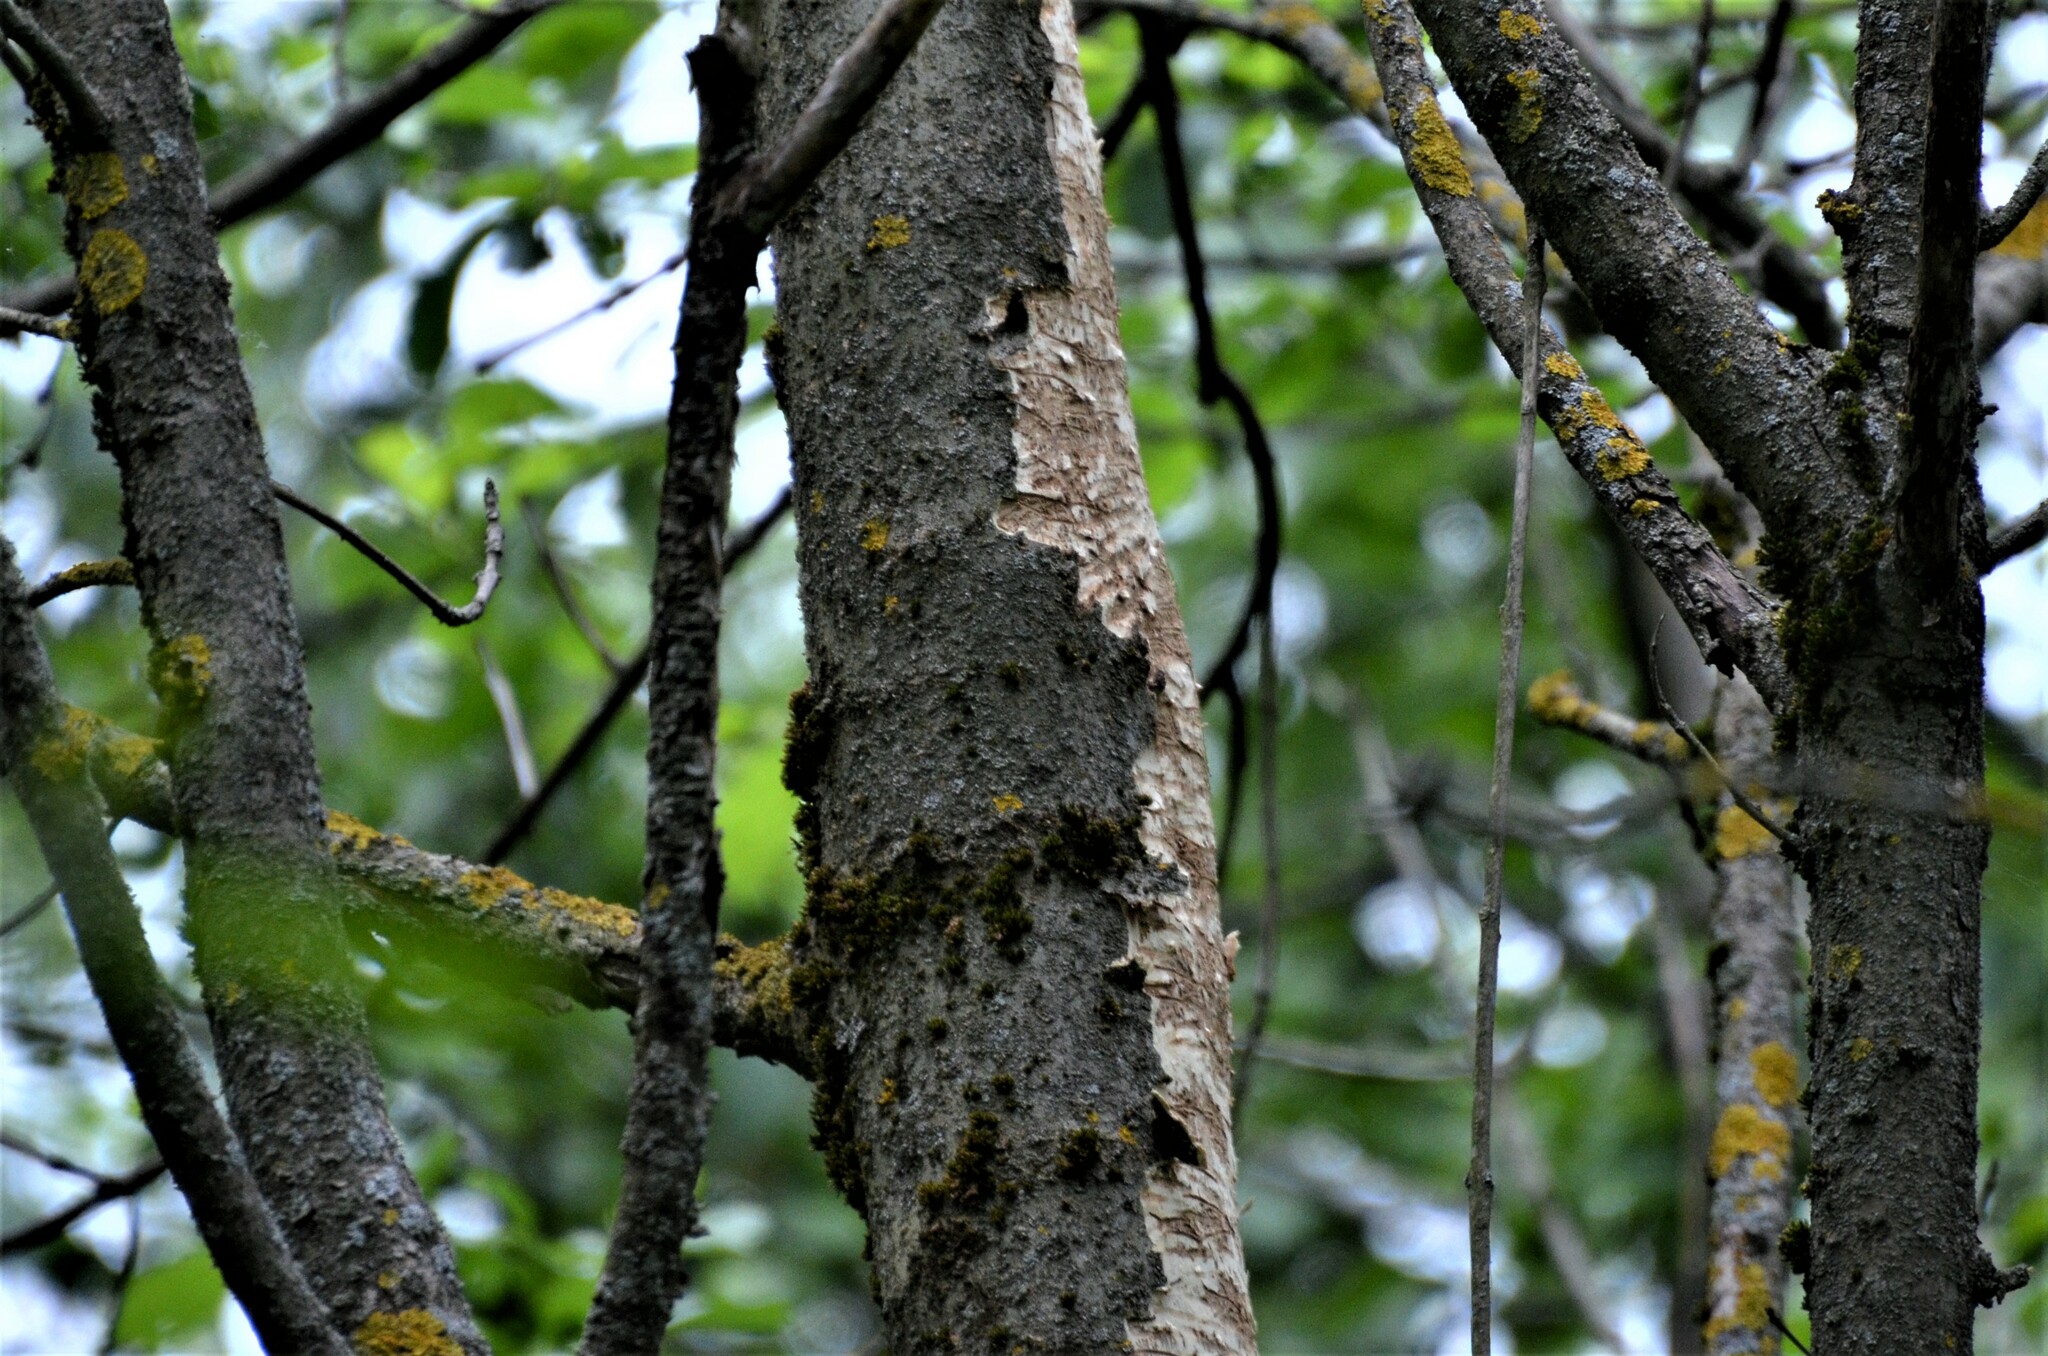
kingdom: Plantae
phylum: Tracheophyta
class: Magnoliopsida
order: Lamiales
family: Oleaceae
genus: Fraxinus
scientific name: Fraxinus excelsior
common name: European ash
